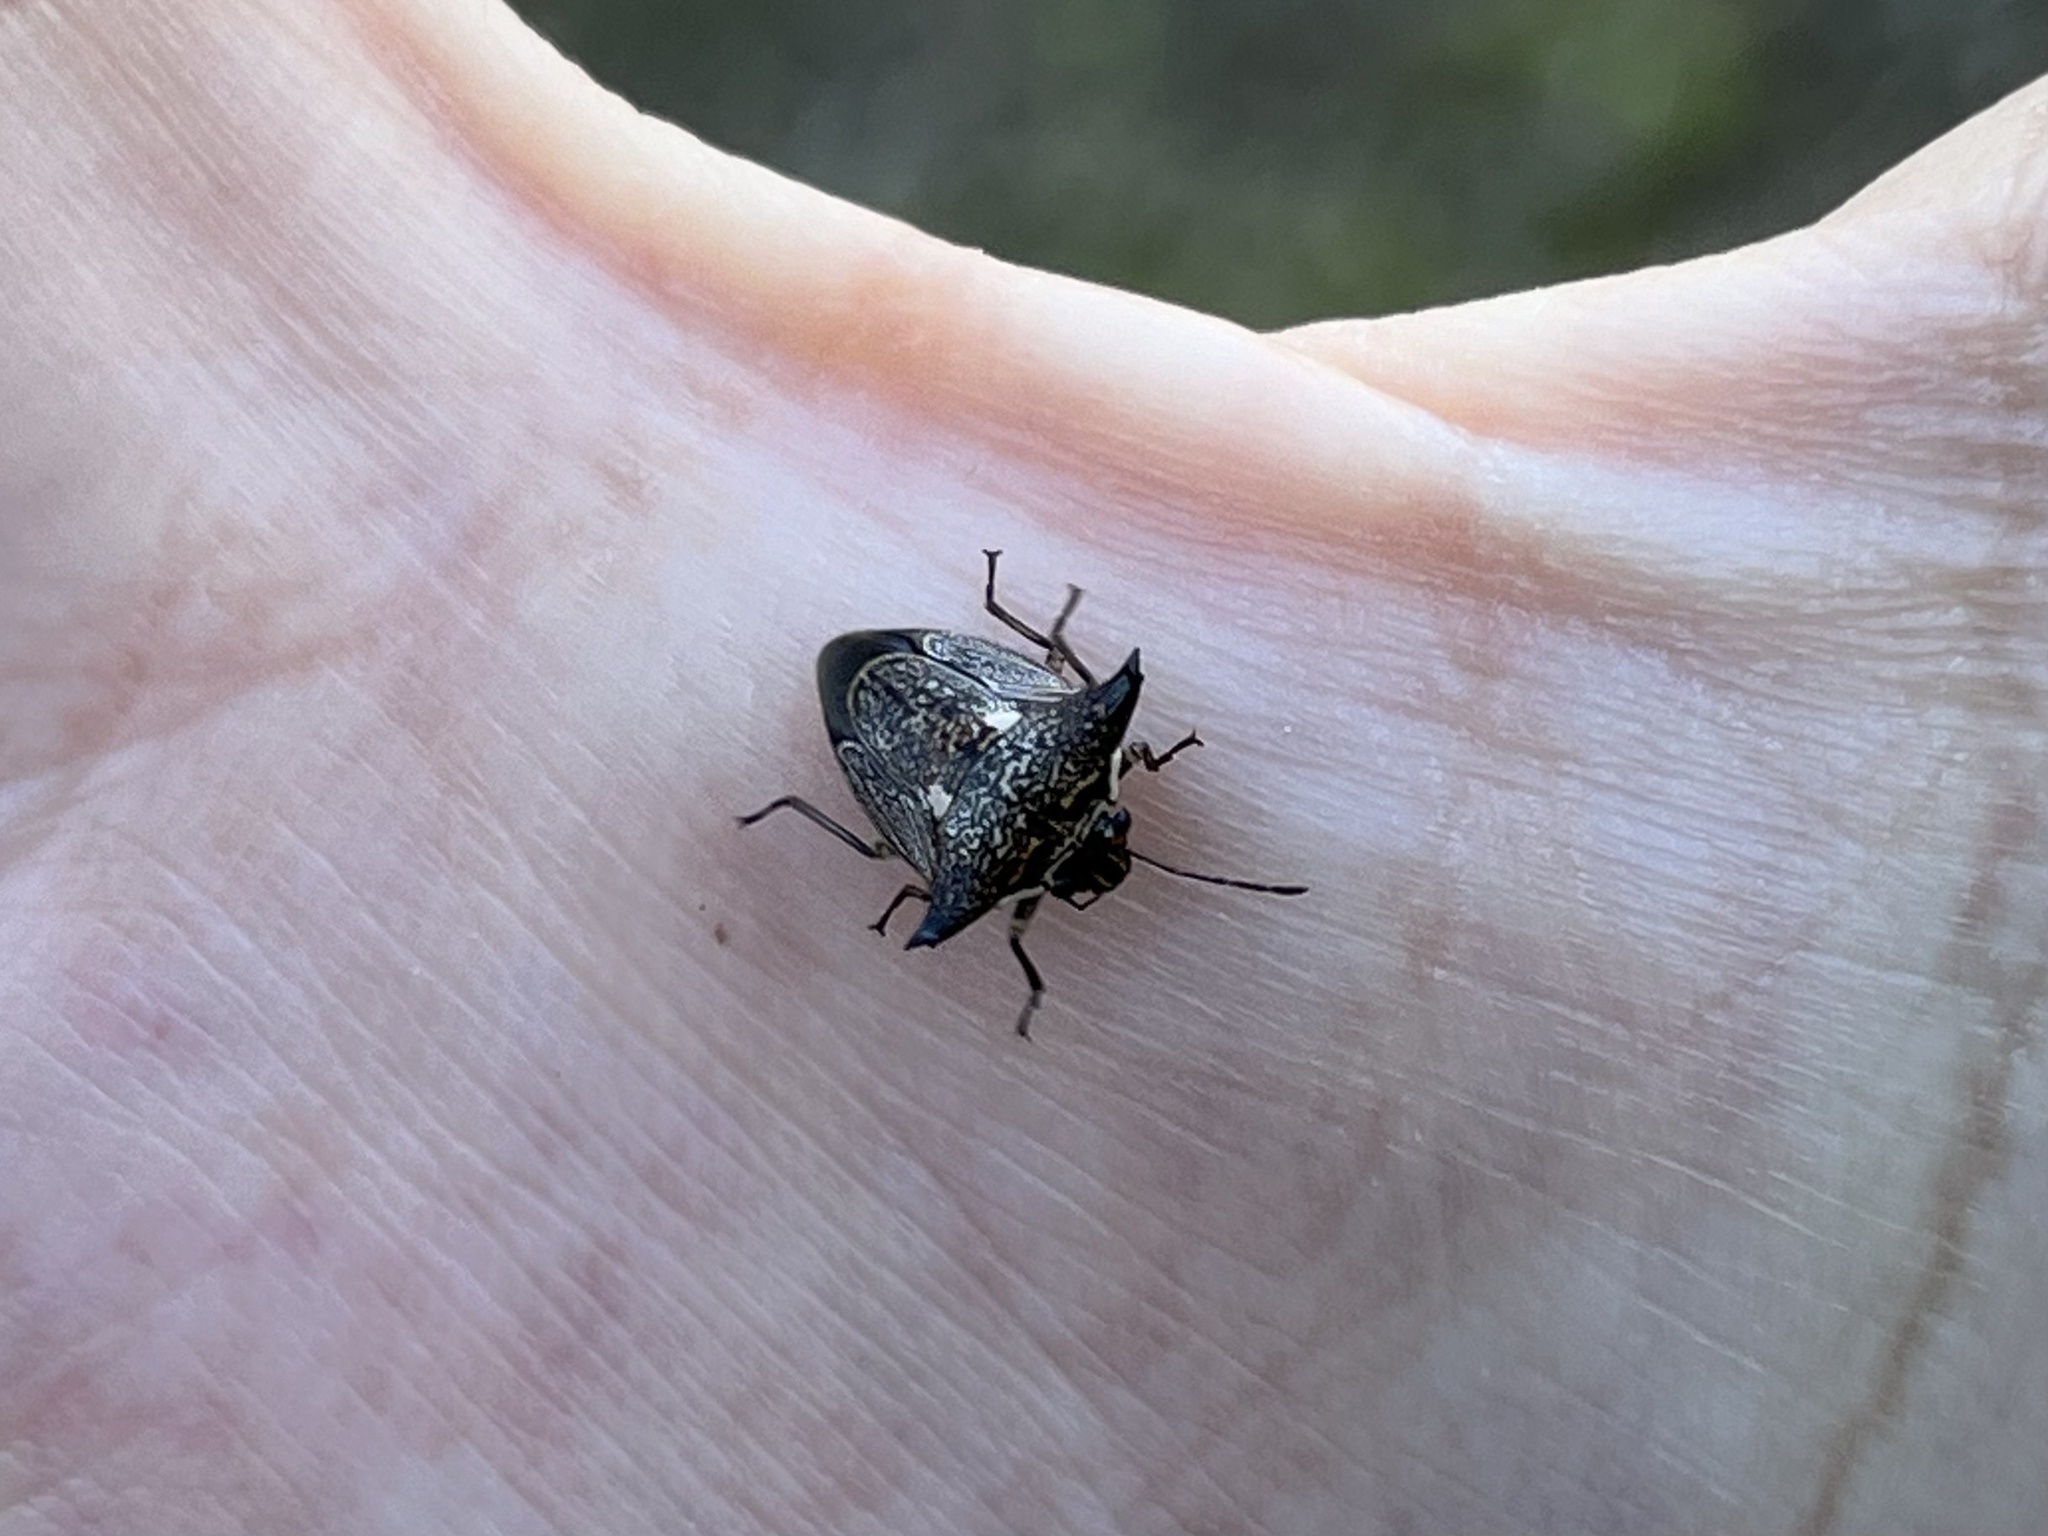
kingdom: Animalia
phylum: Arthropoda
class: Insecta
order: Hemiptera
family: Pentatomidae
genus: Alcimocoris
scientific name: Alcimocoris japonersis
